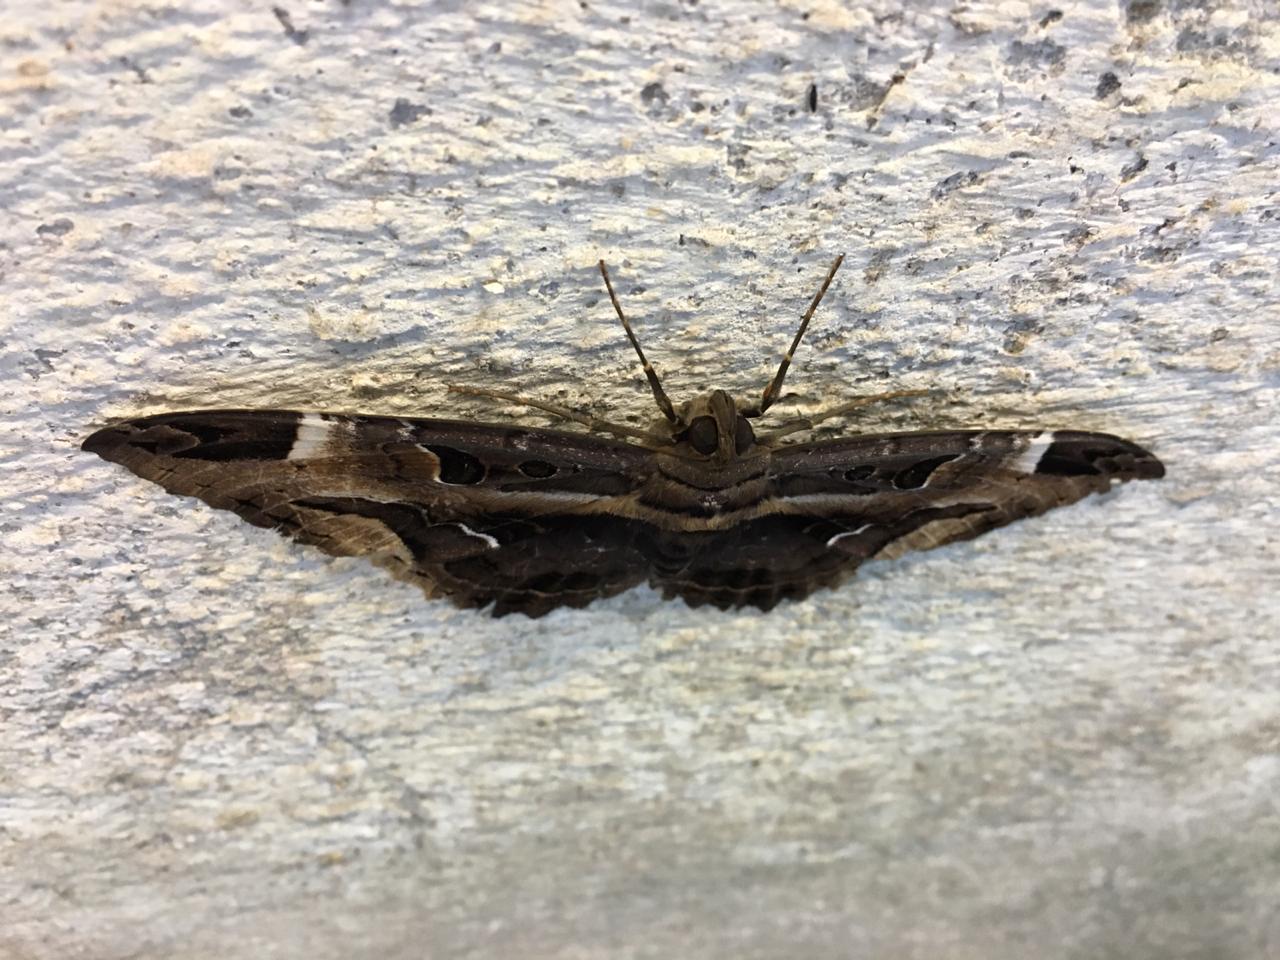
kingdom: Animalia
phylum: Arthropoda
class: Insecta
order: Lepidoptera
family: Erebidae
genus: Feigeria
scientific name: Feigeria herilia
